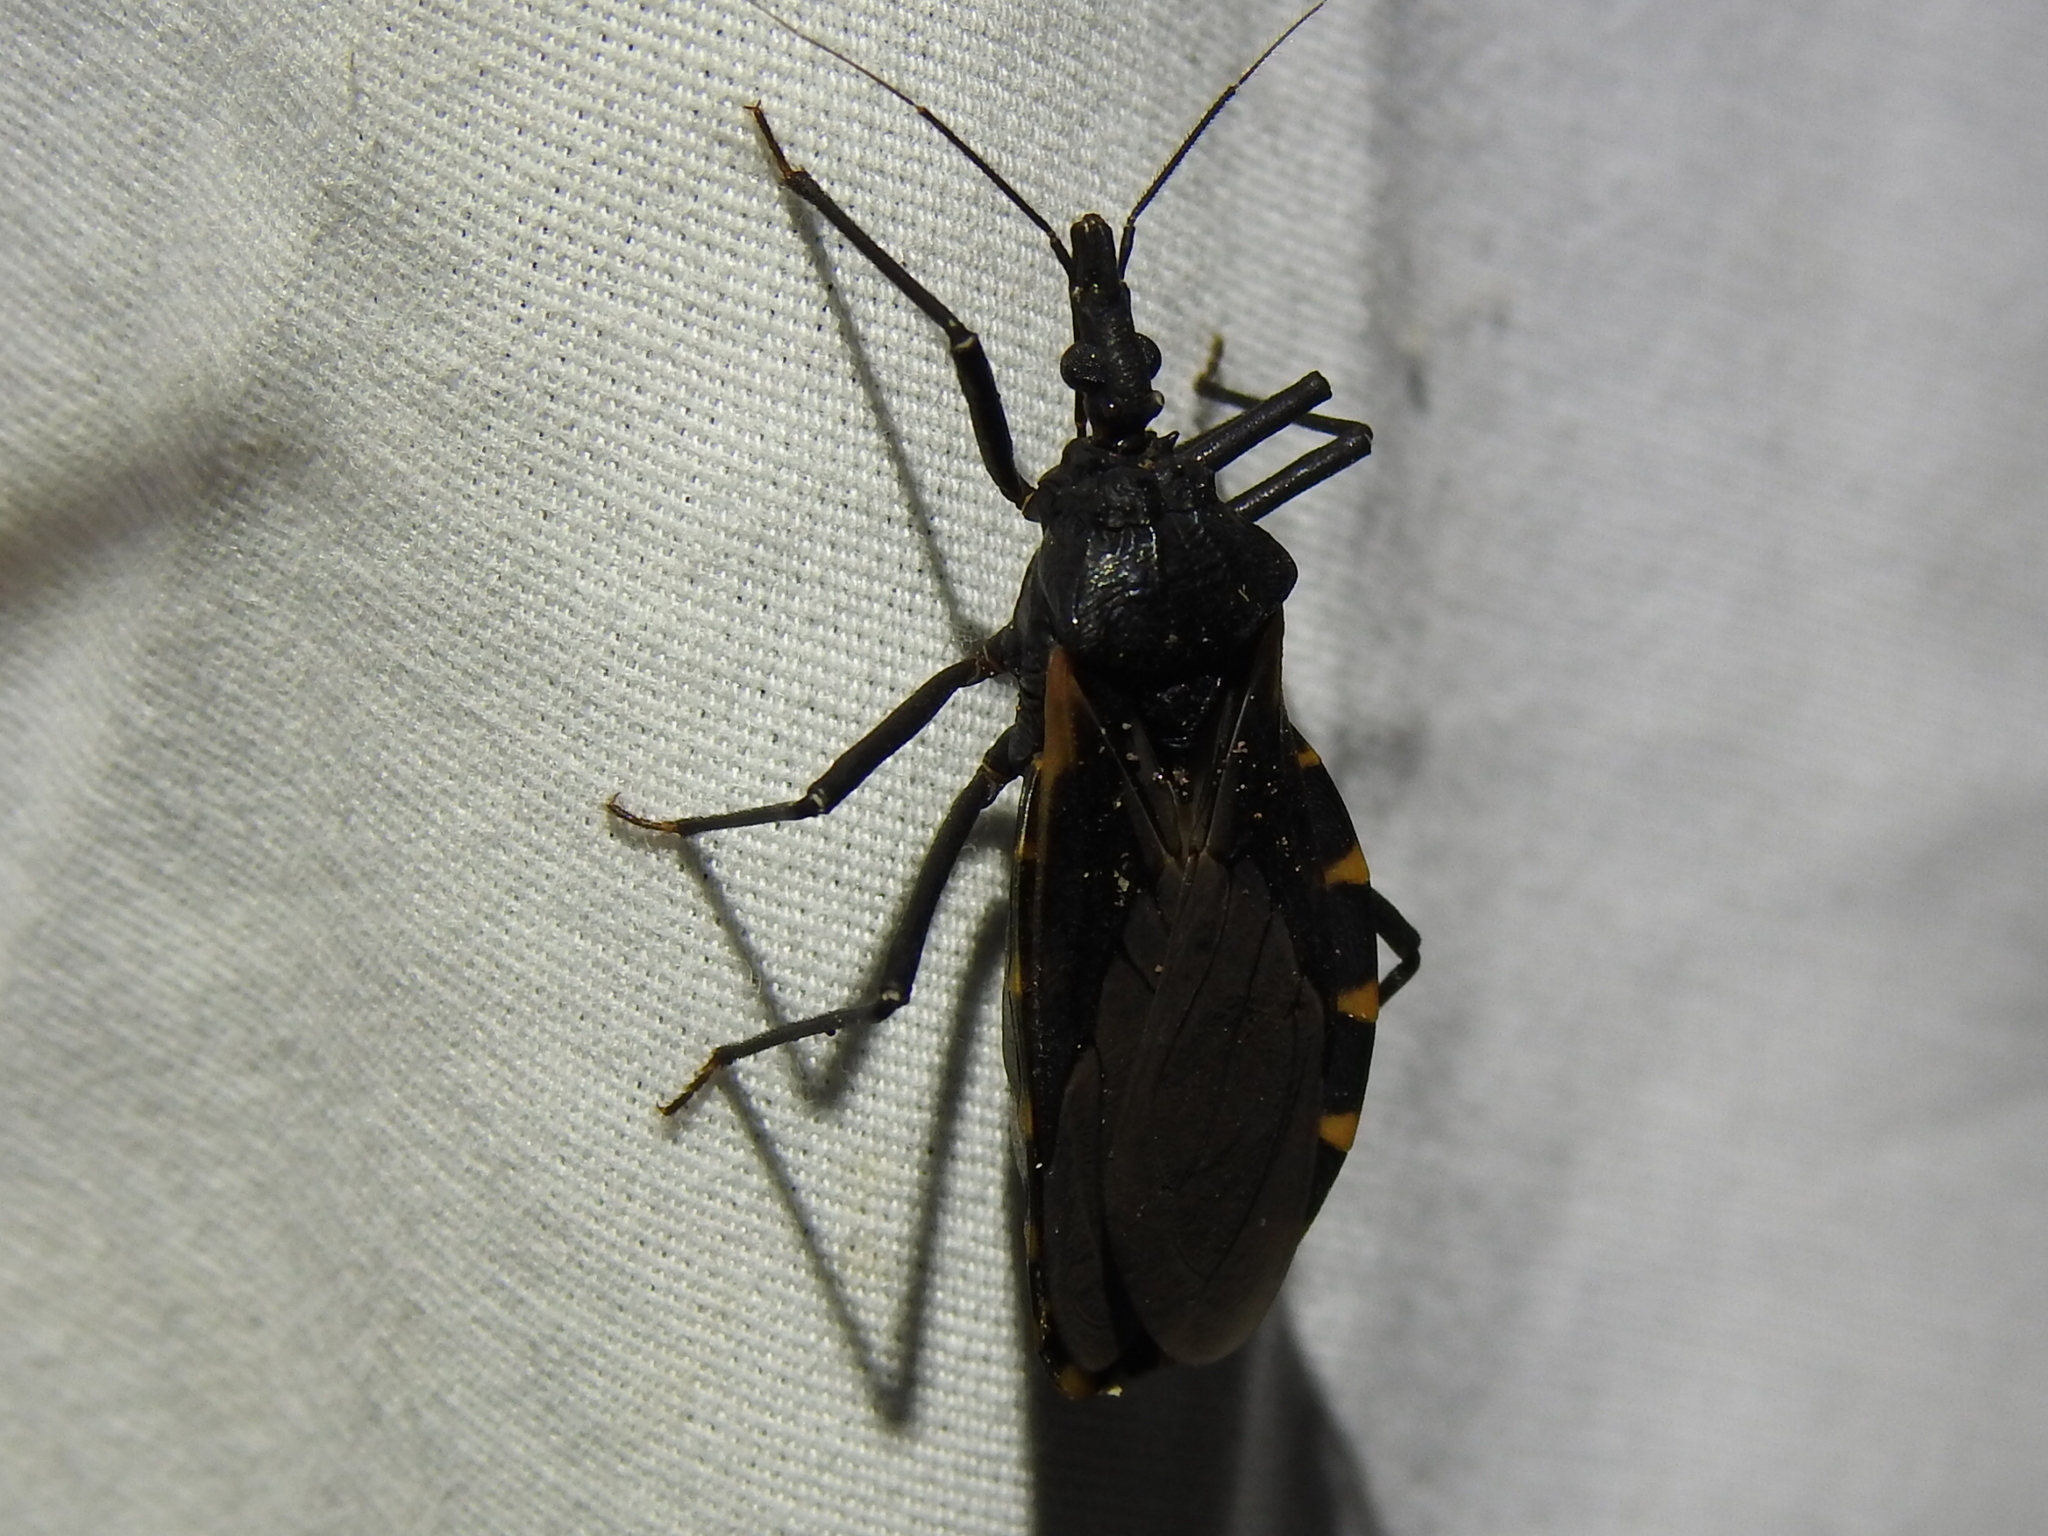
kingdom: Animalia
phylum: Arthropoda
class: Insecta
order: Hemiptera
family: Reduviidae
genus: Triatoma
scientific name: Triatoma gerstaeckeri
